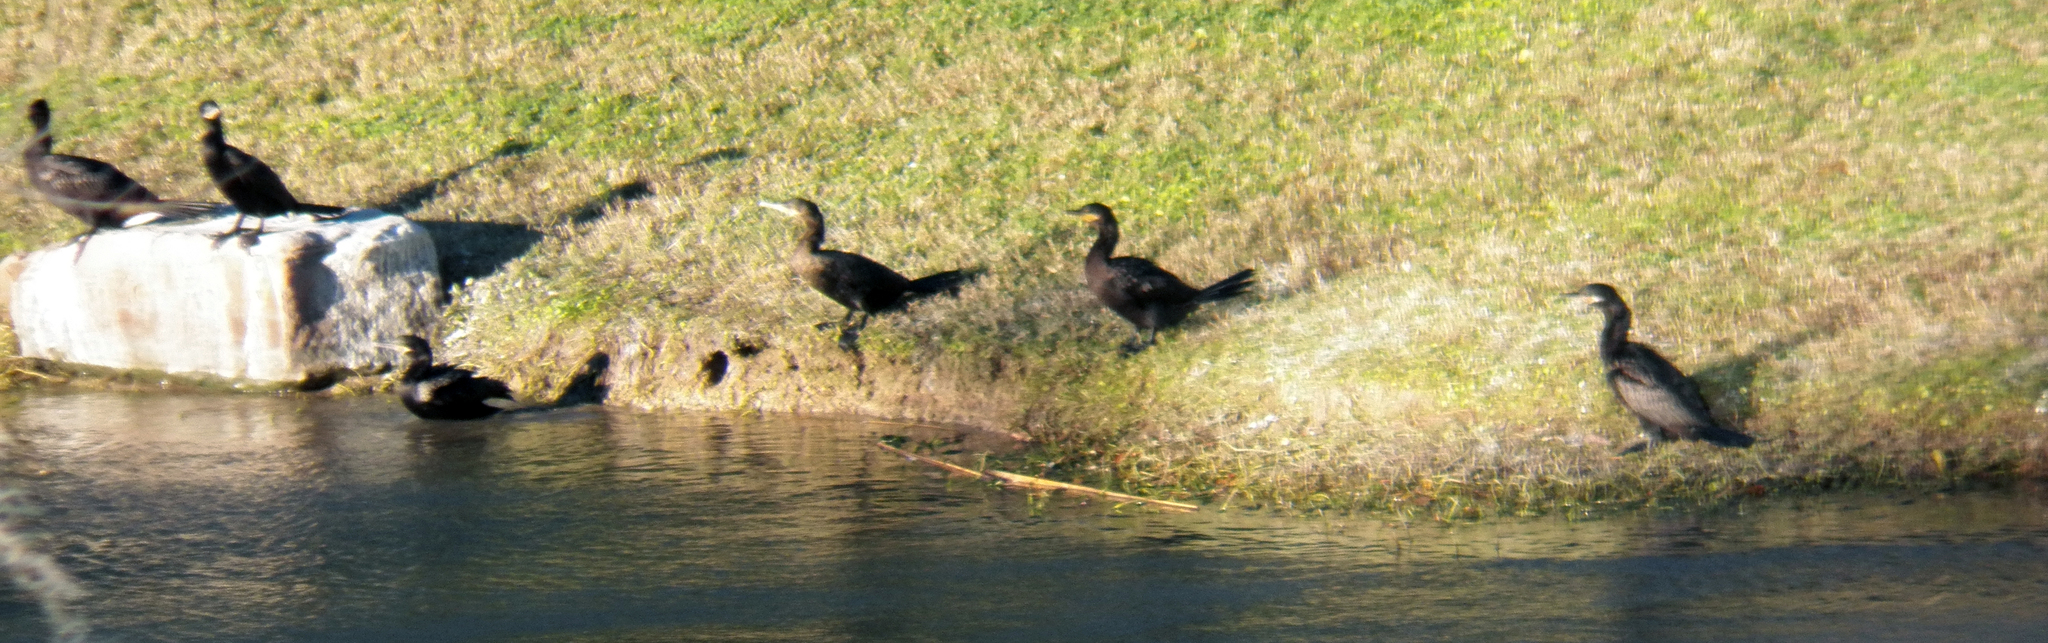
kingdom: Animalia
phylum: Chordata
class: Aves
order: Suliformes
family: Phalacrocoracidae
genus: Phalacrocorax
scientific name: Phalacrocorax brasilianus
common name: Neotropic cormorant
